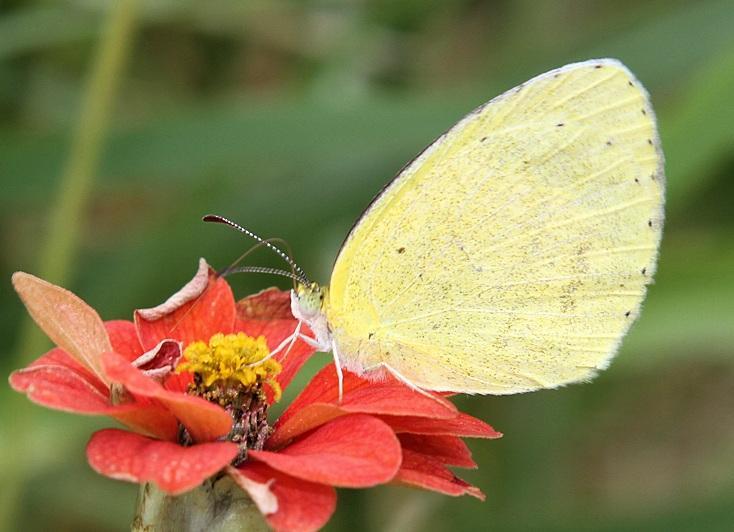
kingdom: Animalia
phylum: Arthropoda
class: Insecta
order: Lepidoptera
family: Pieridae
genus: Eurema
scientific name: Eurema brigitta
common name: Small grass yellow
